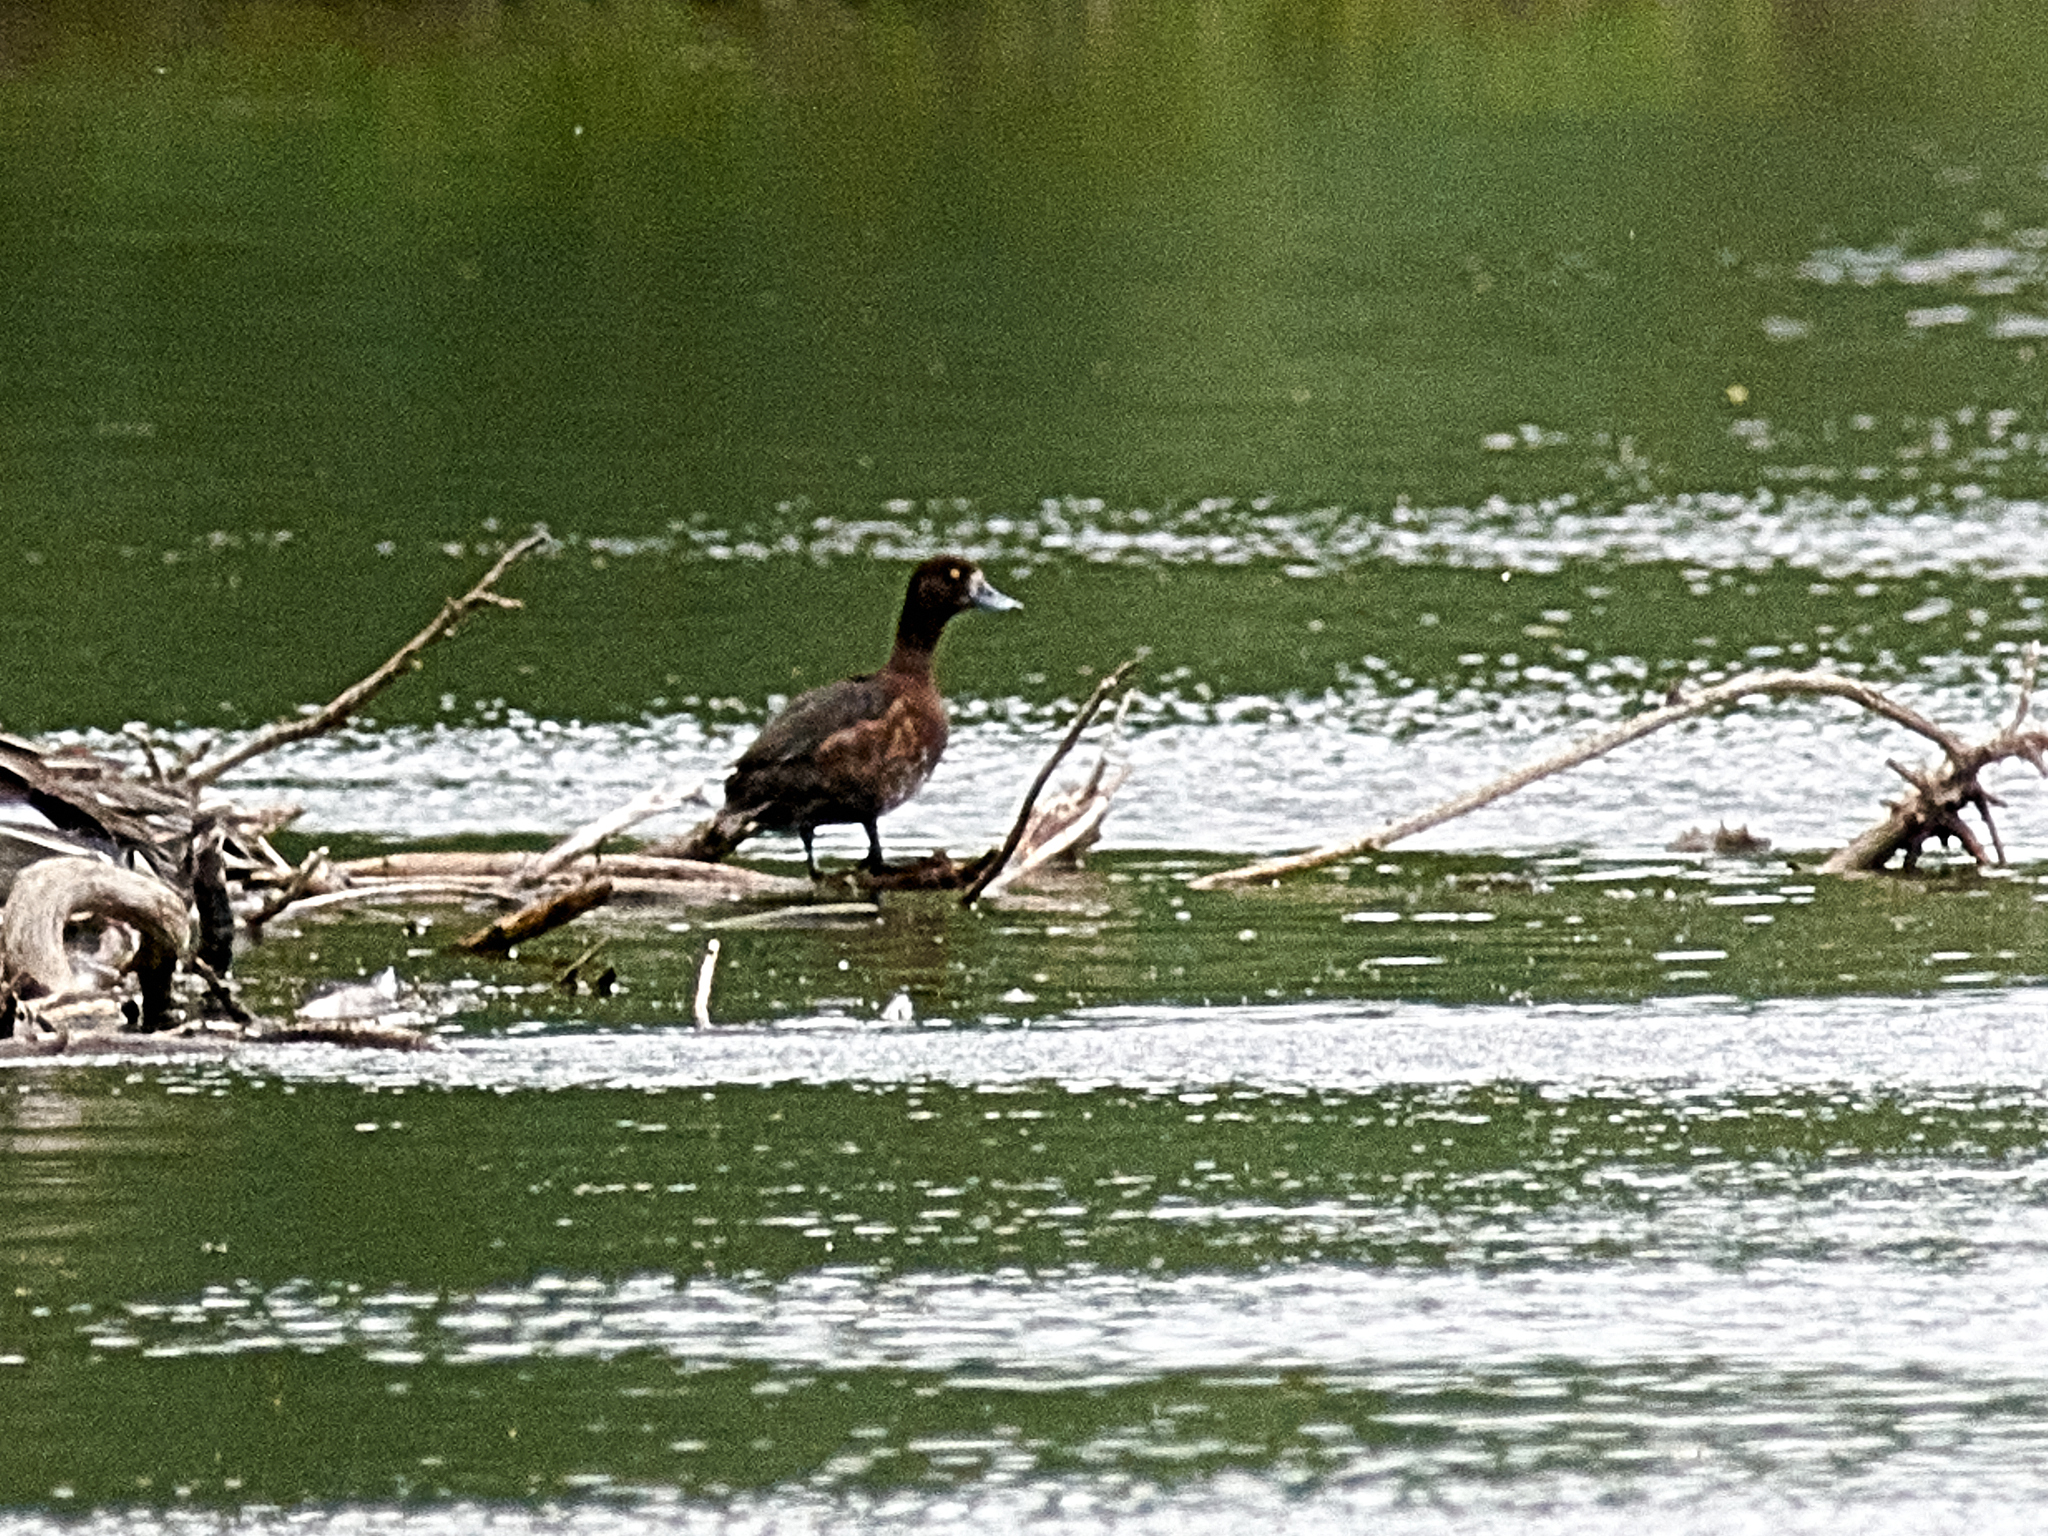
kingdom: Animalia
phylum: Chordata
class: Aves
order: Anseriformes
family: Anatidae
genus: Aythya
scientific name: Aythya fuligula
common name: Tufted duck
